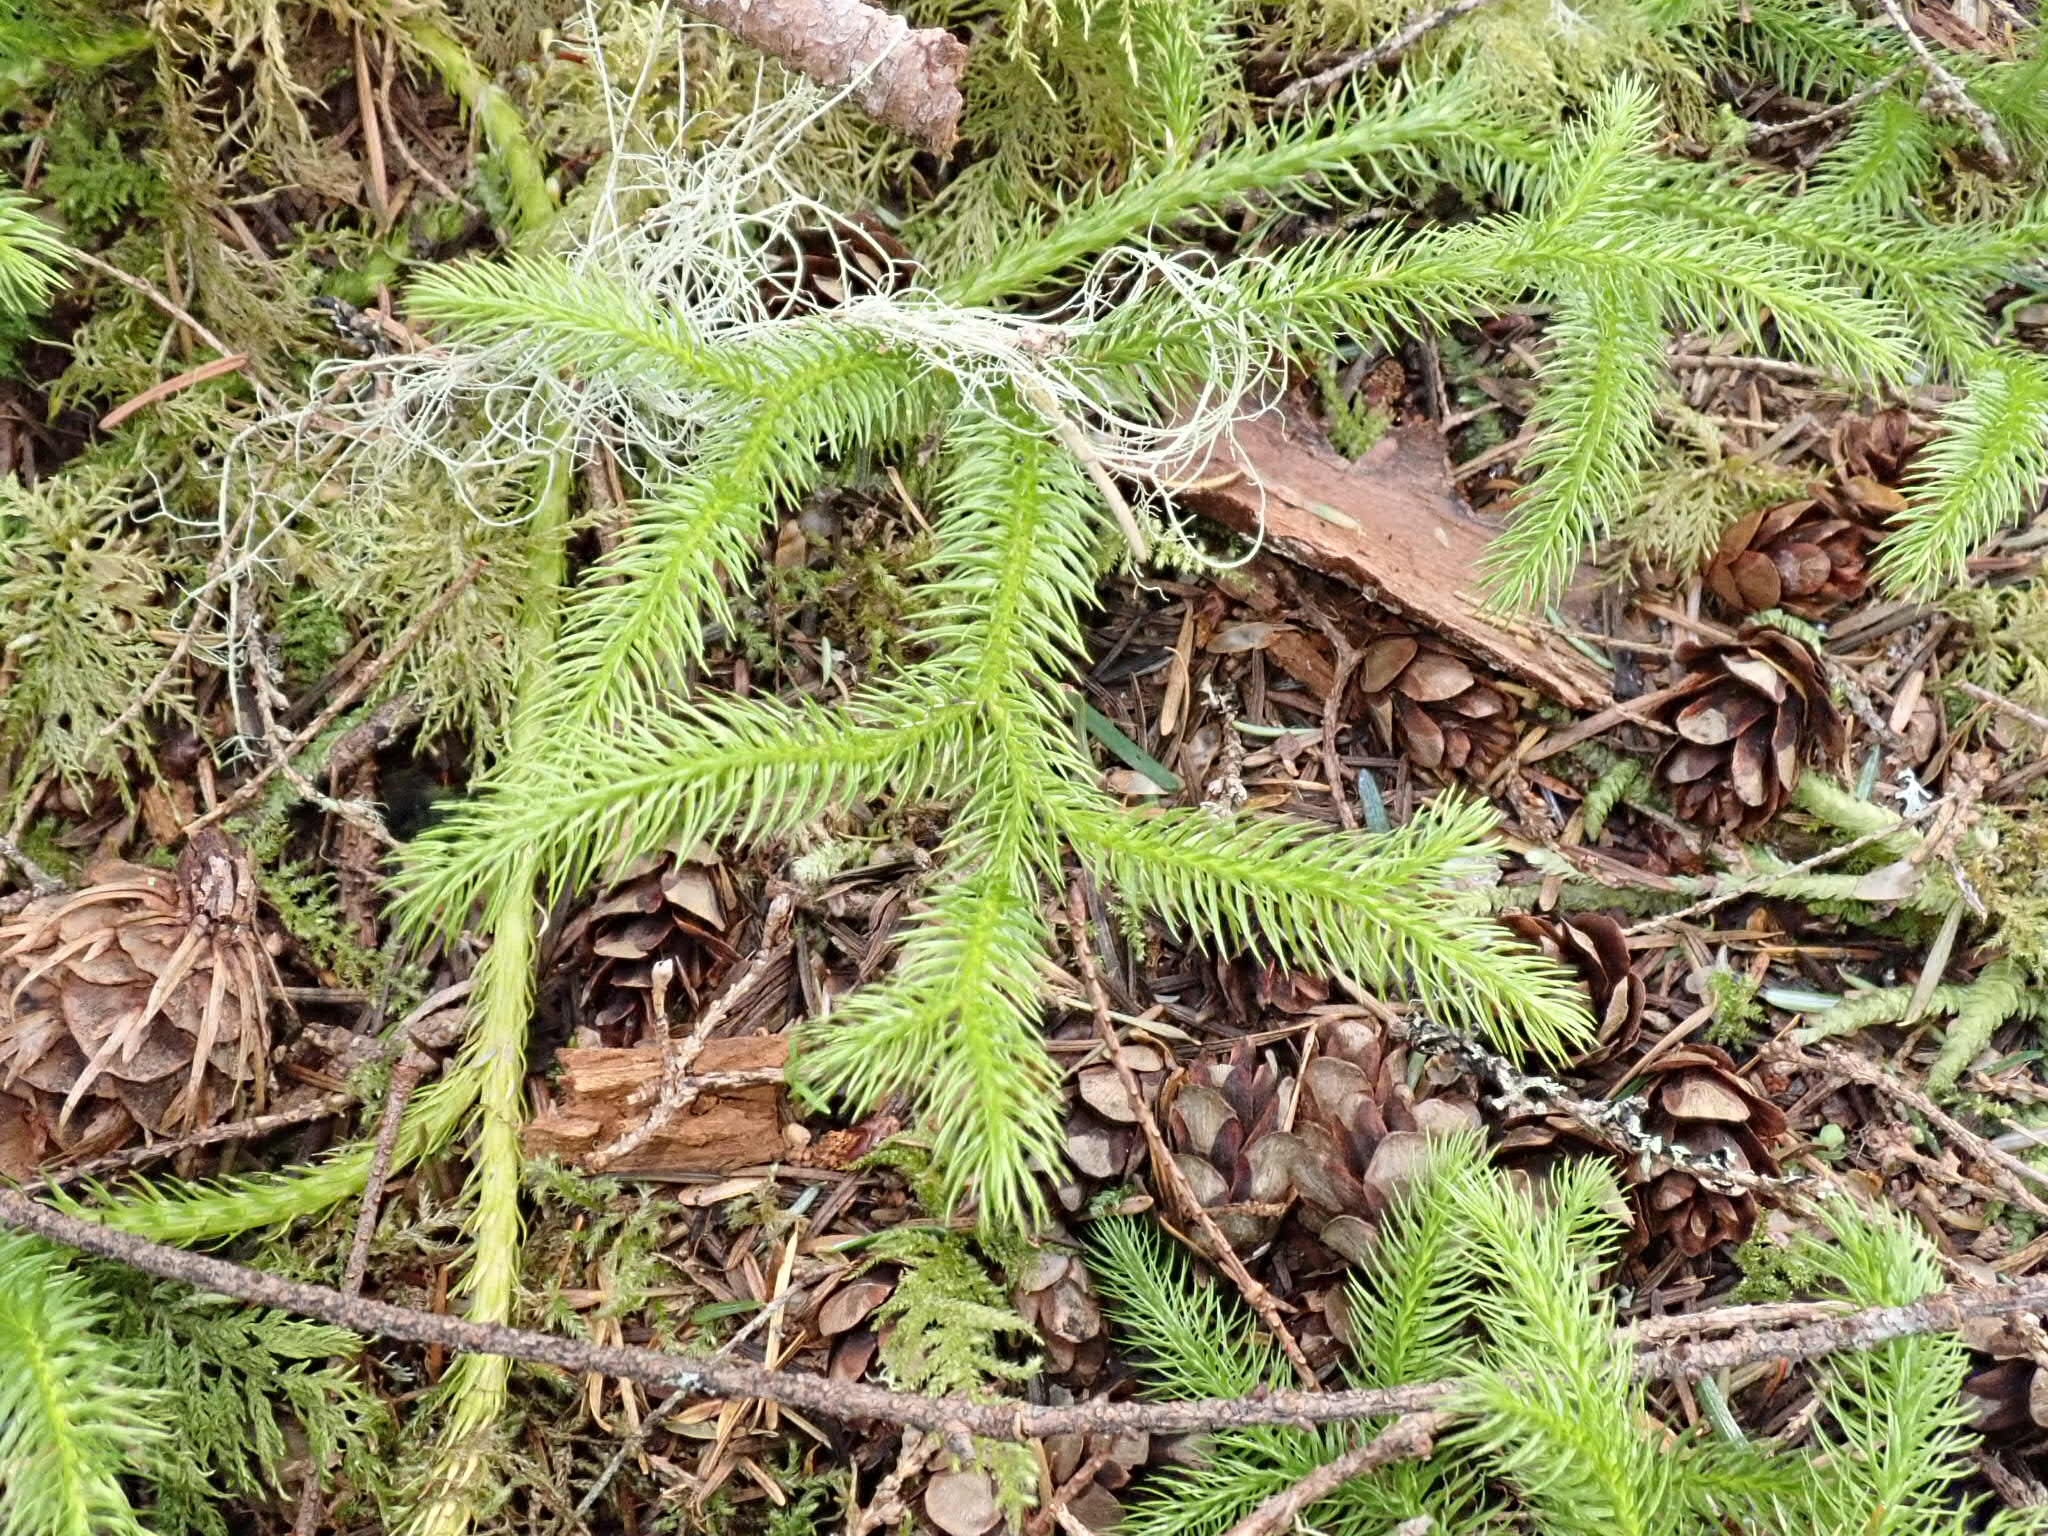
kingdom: Plantae
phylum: Tracheophyta
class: Lycopodiopsida
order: Lycopodiales
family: Lycopodiaceae
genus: Lycopodium
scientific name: Lycopodium clavatum
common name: Stag's-horn clubmoss
